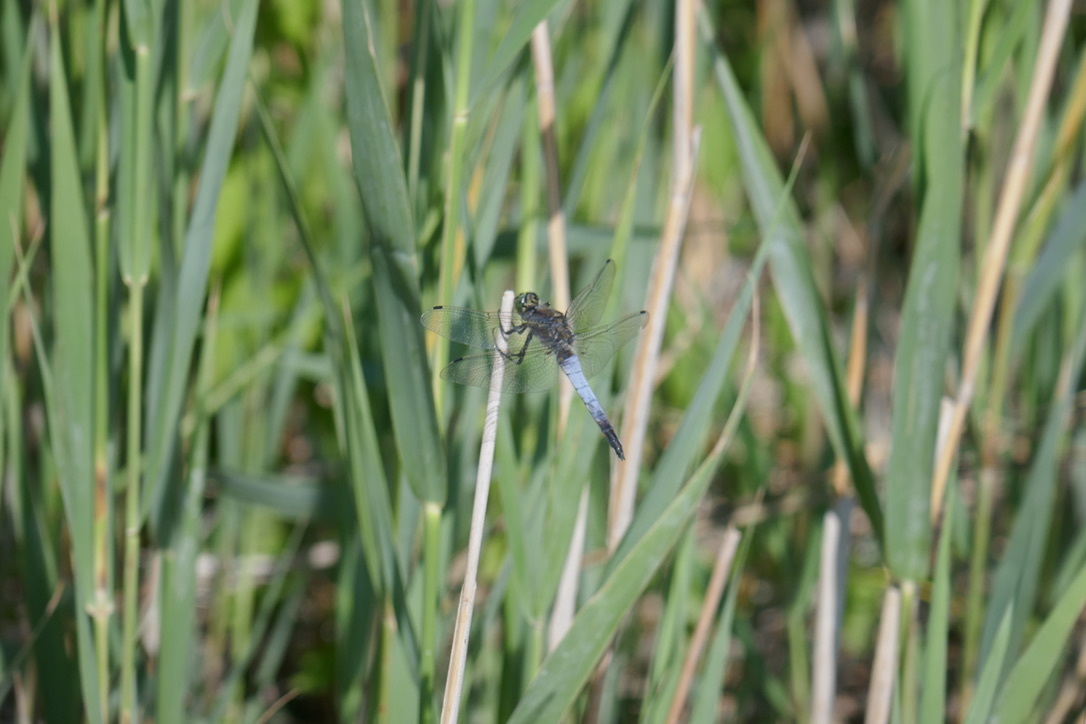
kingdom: Animalia
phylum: Arthropoda
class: Insecta
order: Odonata
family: Libellulidae
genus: Orthetrum
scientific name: Orthetrum cancellatum
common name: Black-tailed skimmer
